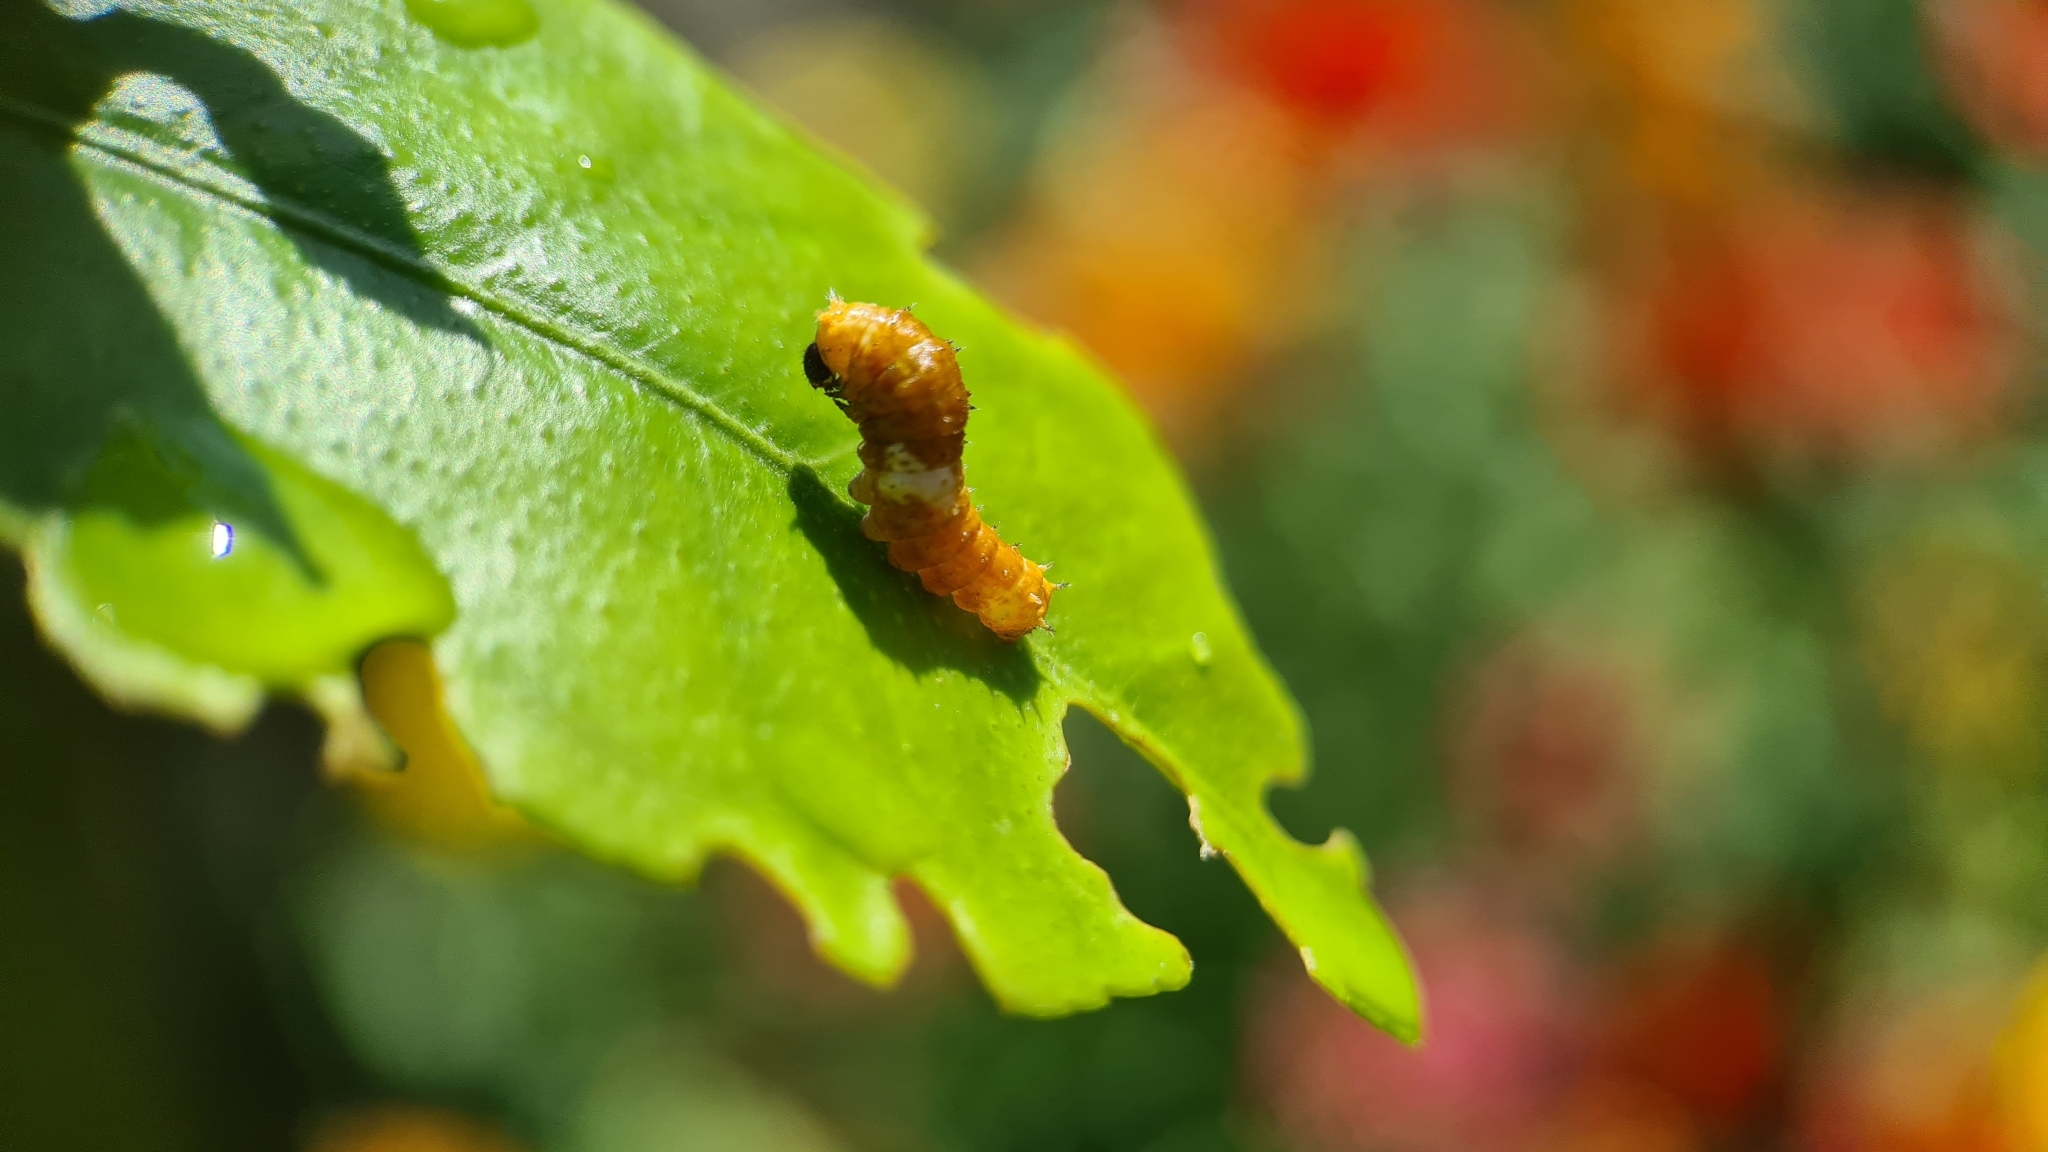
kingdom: Animalia
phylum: Arthropoda
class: Insecta
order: Lepidoptera
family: Lycaenidae
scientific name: Lycaenidae
